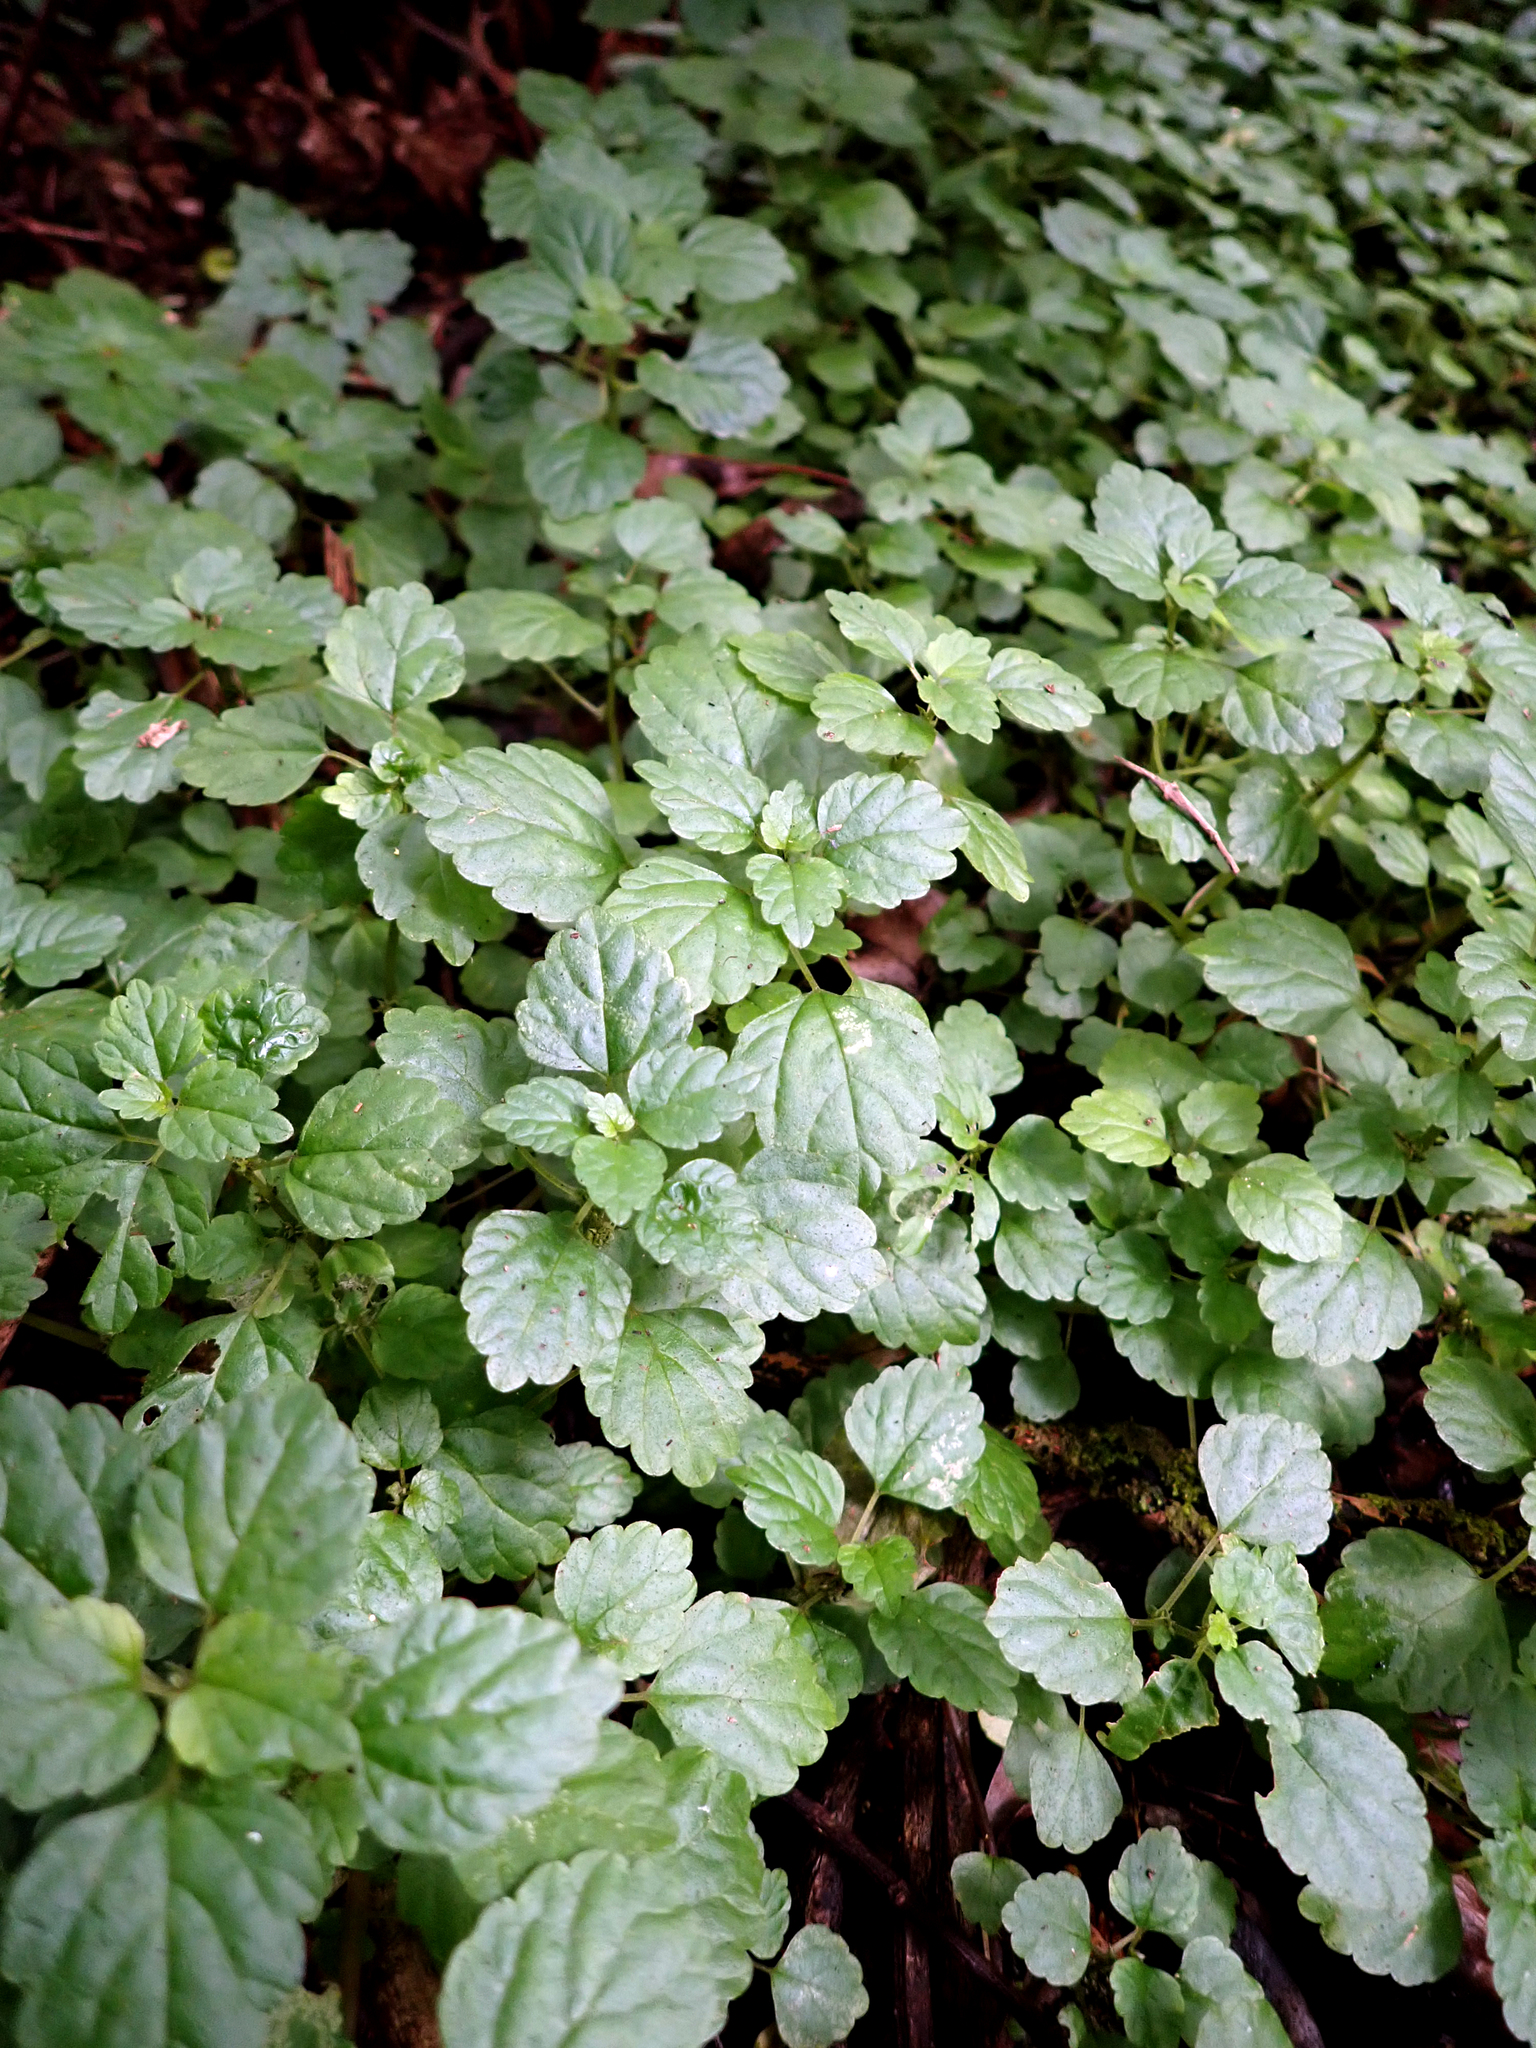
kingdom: Plantae
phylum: Tracheophyta
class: Magnoliopsida
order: Rosales
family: Urticaceae
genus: Australina
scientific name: Australina pusilla
